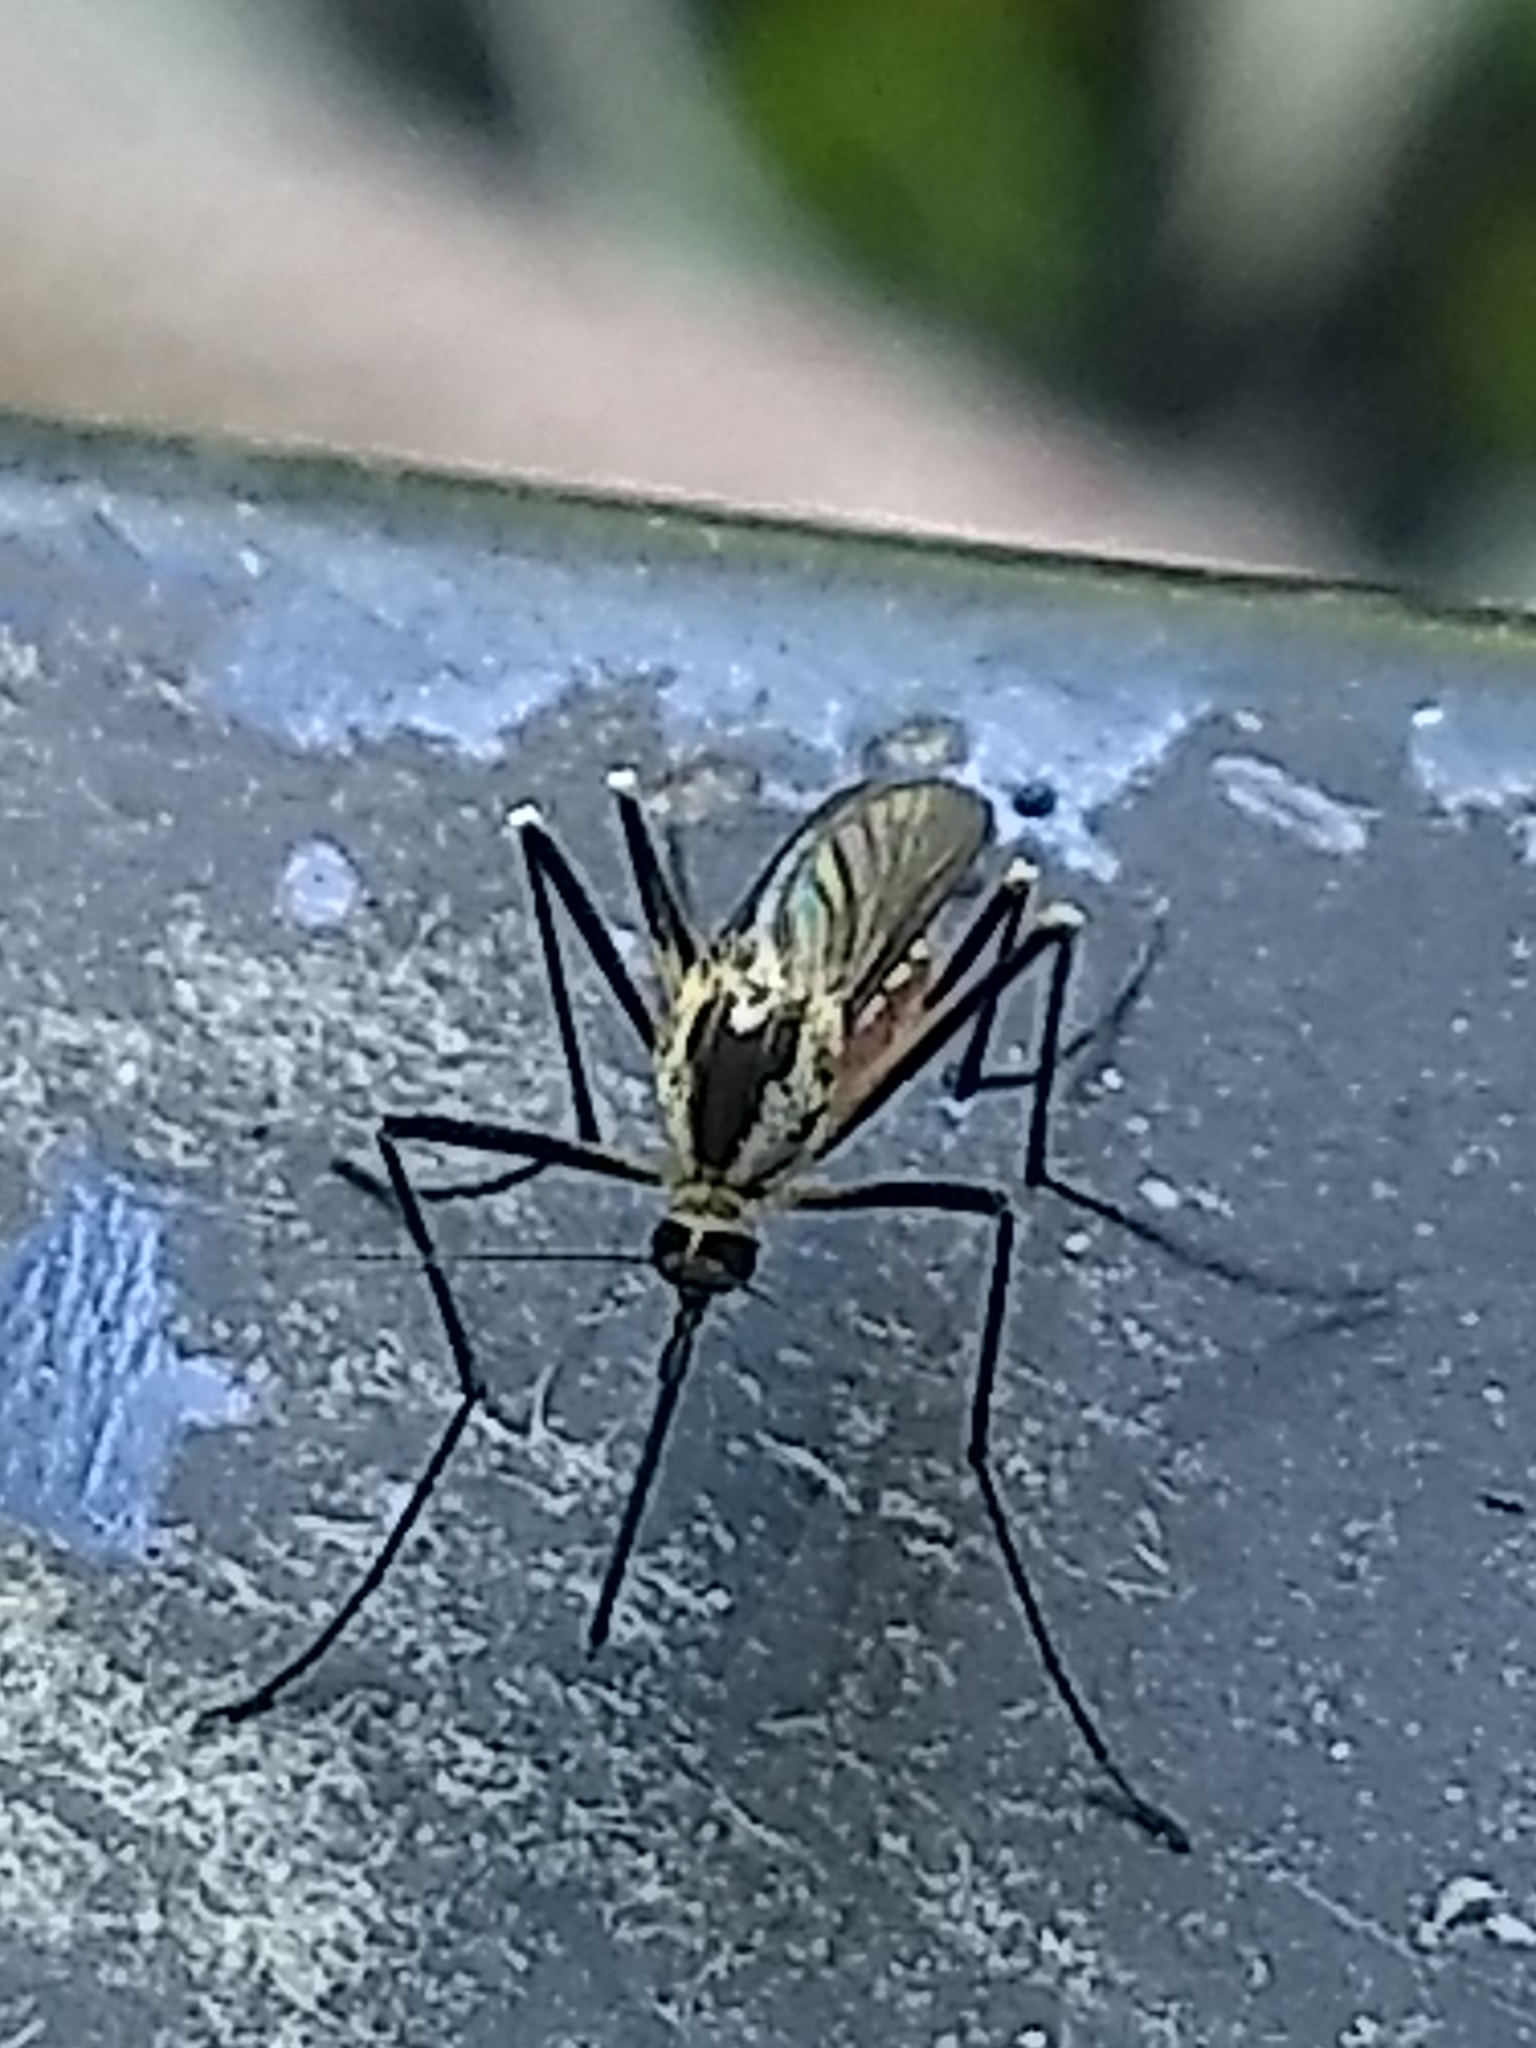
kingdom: Animalia
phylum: Arthropoda
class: Insecta
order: Diptera
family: Culicidae
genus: Aedes
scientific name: Aedes triseriatus
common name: Eastern treehole mosquito
